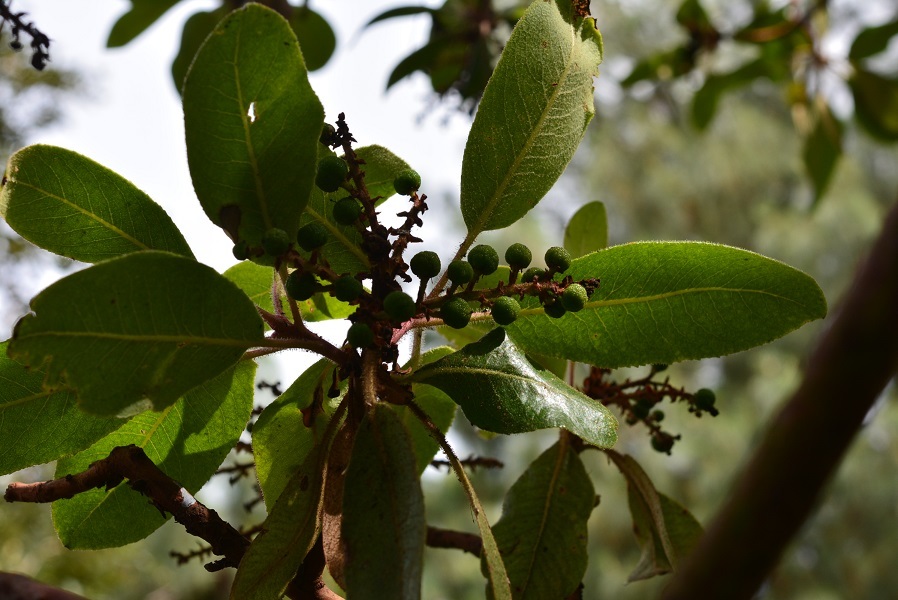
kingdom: Plantae
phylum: Tracheophyta
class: Magnoliopsida
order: Ericales
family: Ericaceae
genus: Arbutus
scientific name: Arbutus xalapensis
